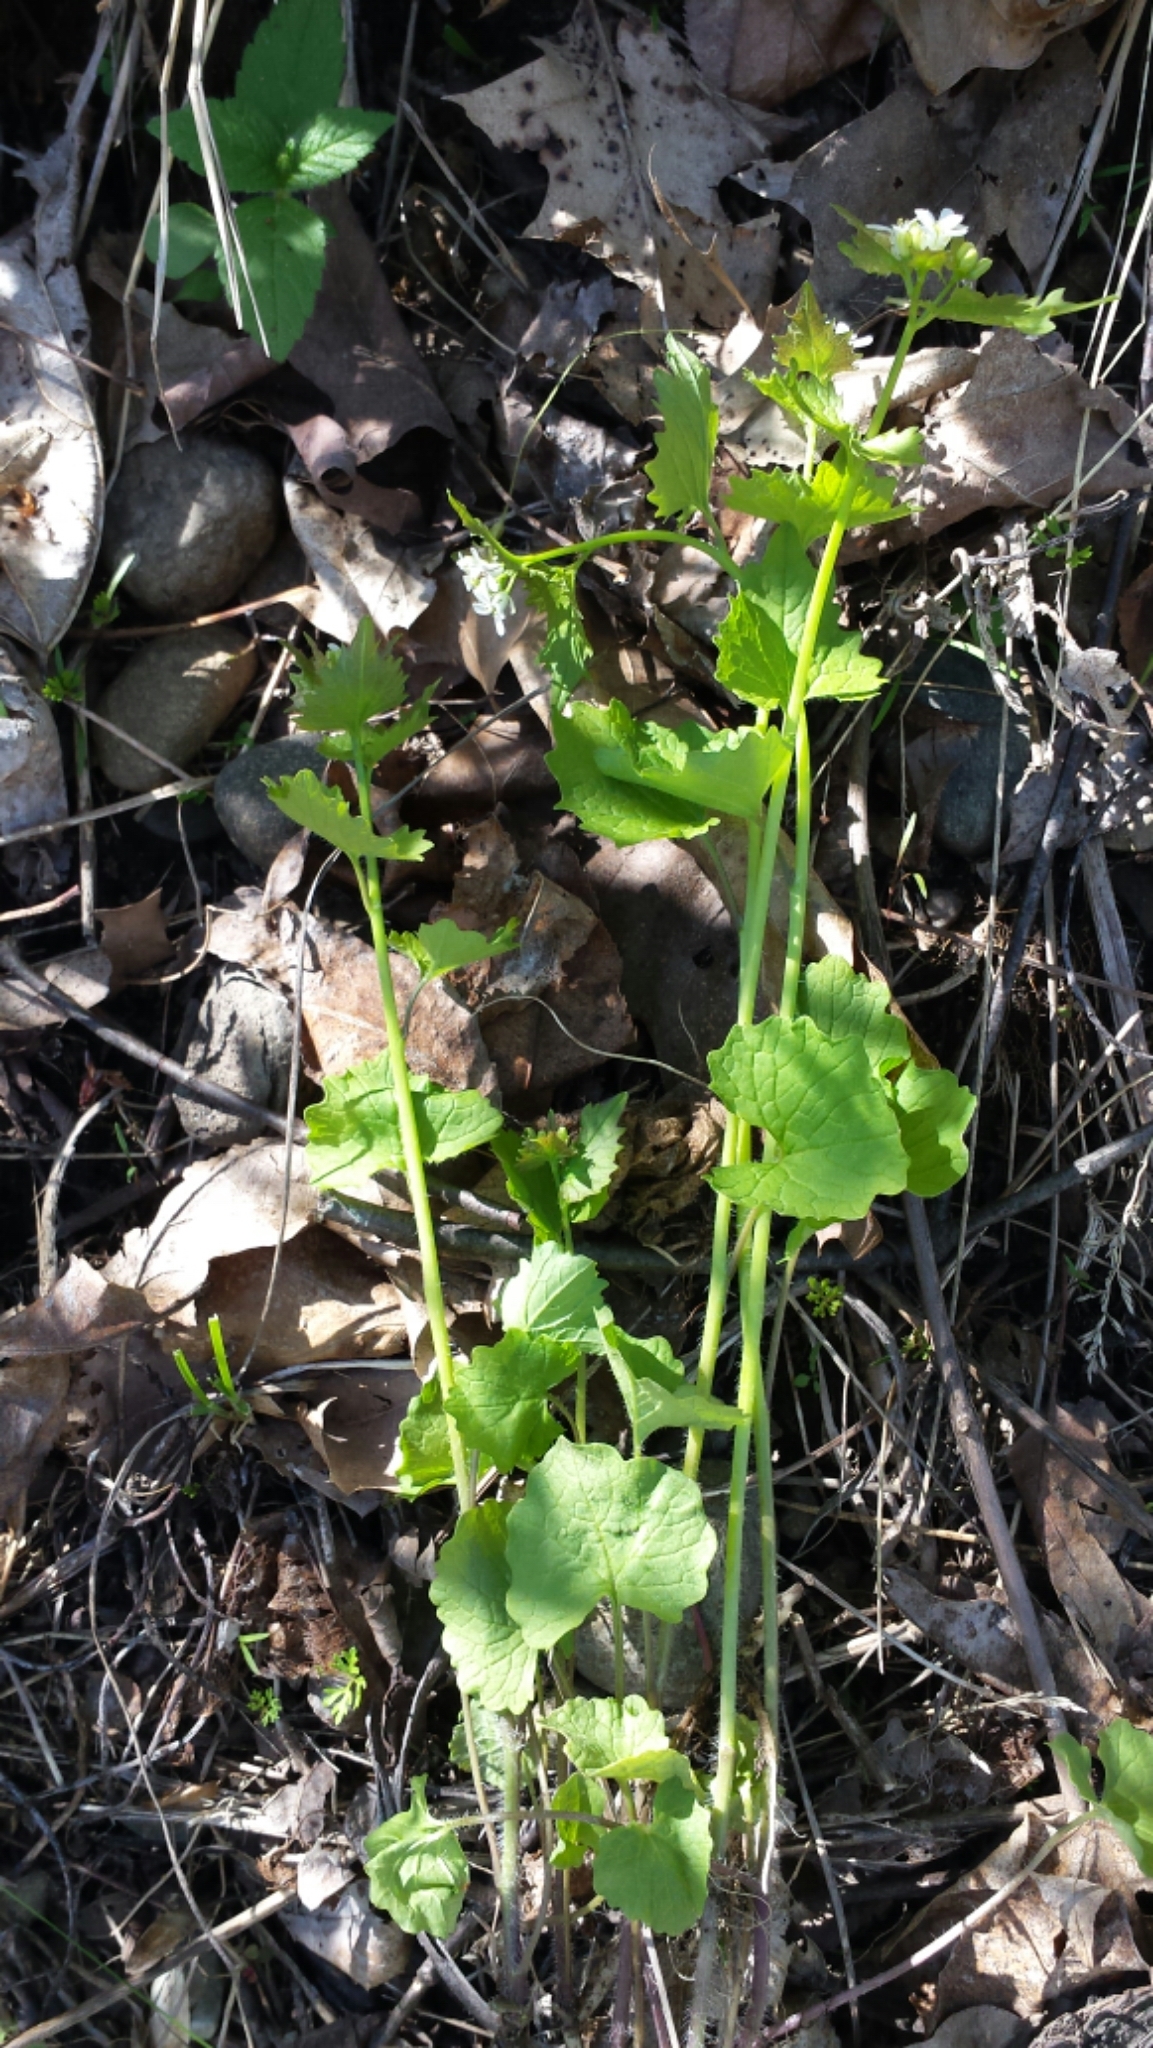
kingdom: Plantae
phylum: Tracheophyta
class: Magnoliopsida
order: Brassicales
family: Brassicaceae
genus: Alliaria
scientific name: Alliaria petiolata
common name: Garlic mustard
